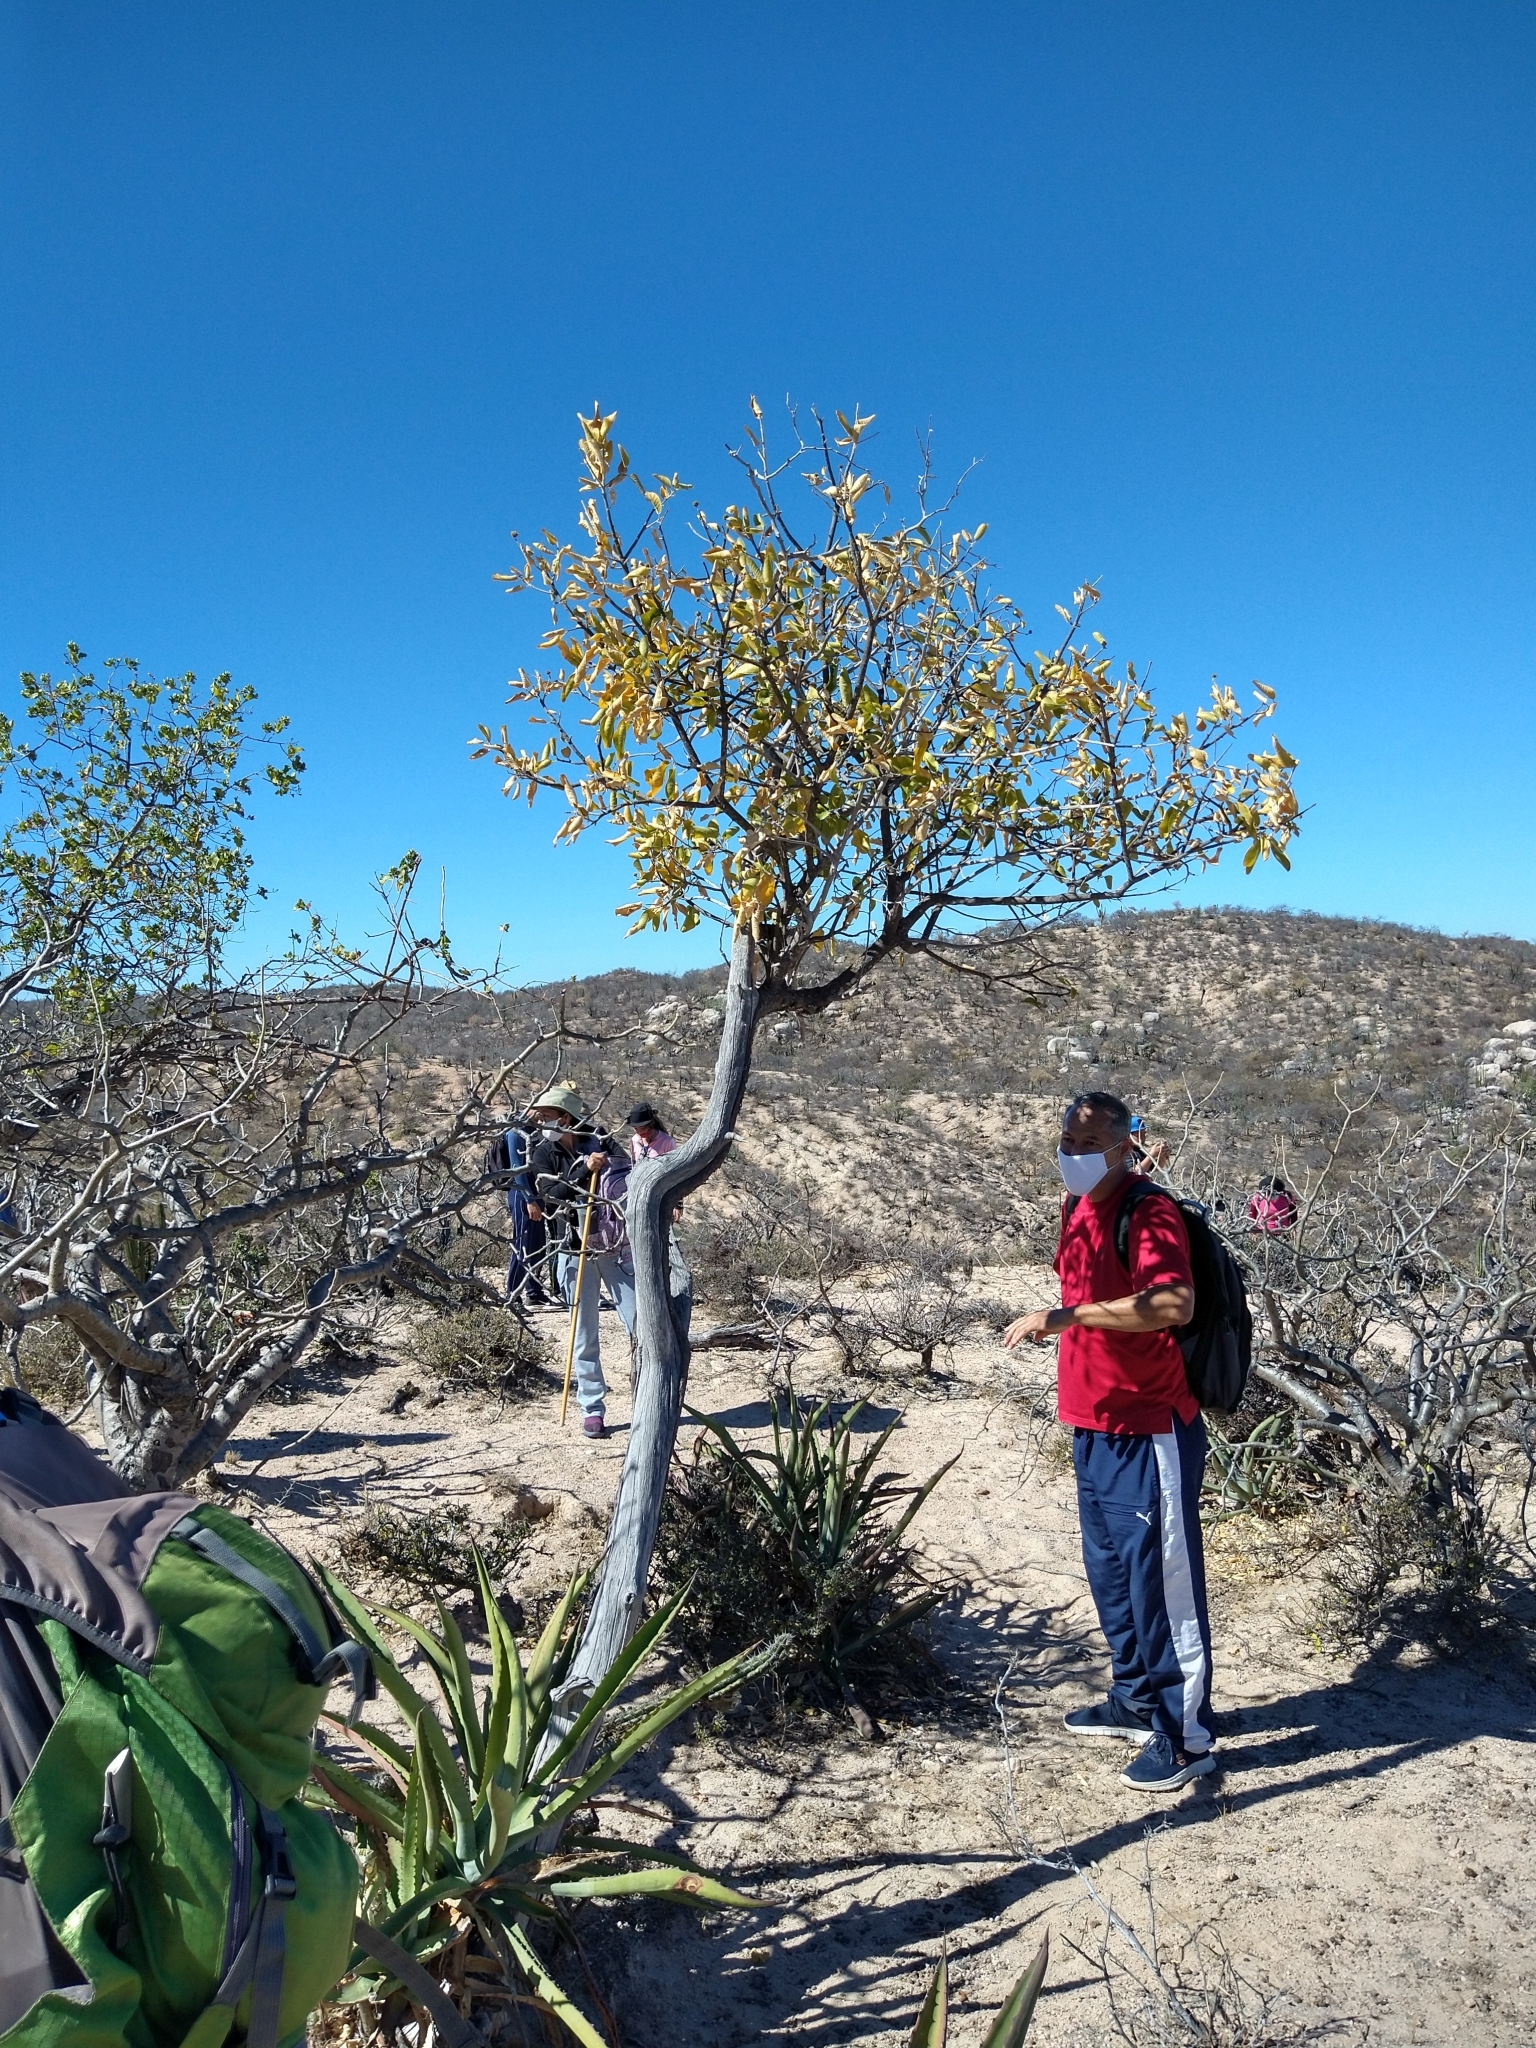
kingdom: Plantae
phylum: Tracheophyta
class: Magnoliopsida
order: Sapindales
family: Rutaceae
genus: Esenbeckia
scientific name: Esenbeckia flava
